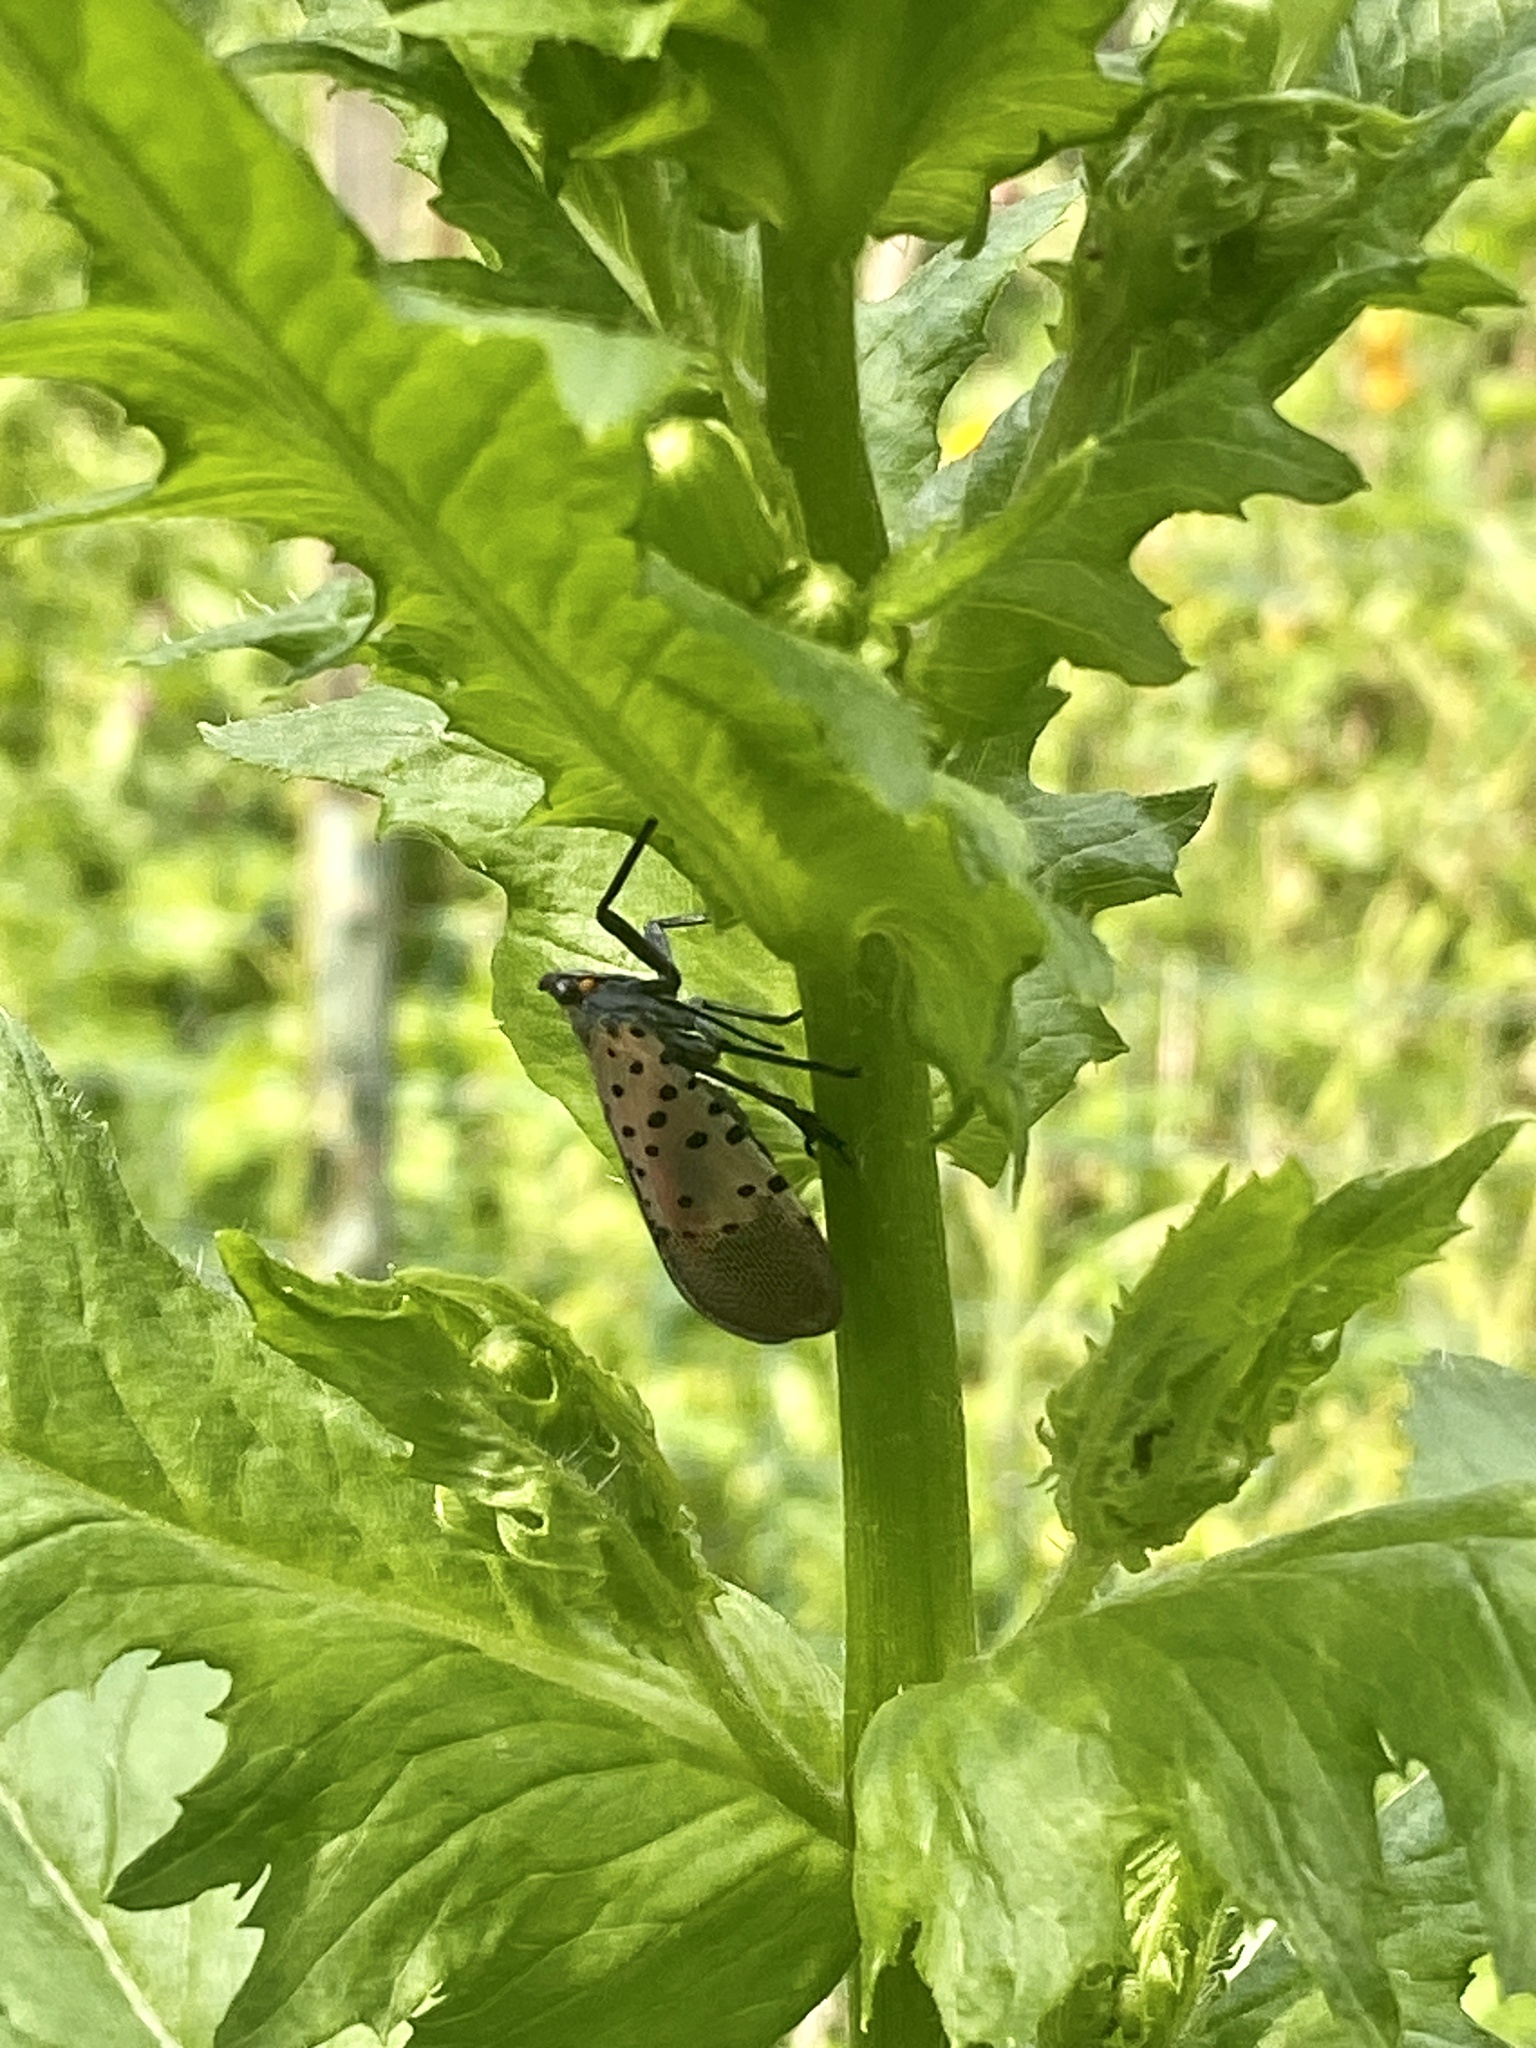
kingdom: Animalia
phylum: Arthropoda
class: Insecta
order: Hemiptera
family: Fulgoridae
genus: Lycorma
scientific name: Lycorma delicatula
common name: Spotted lanternfly
